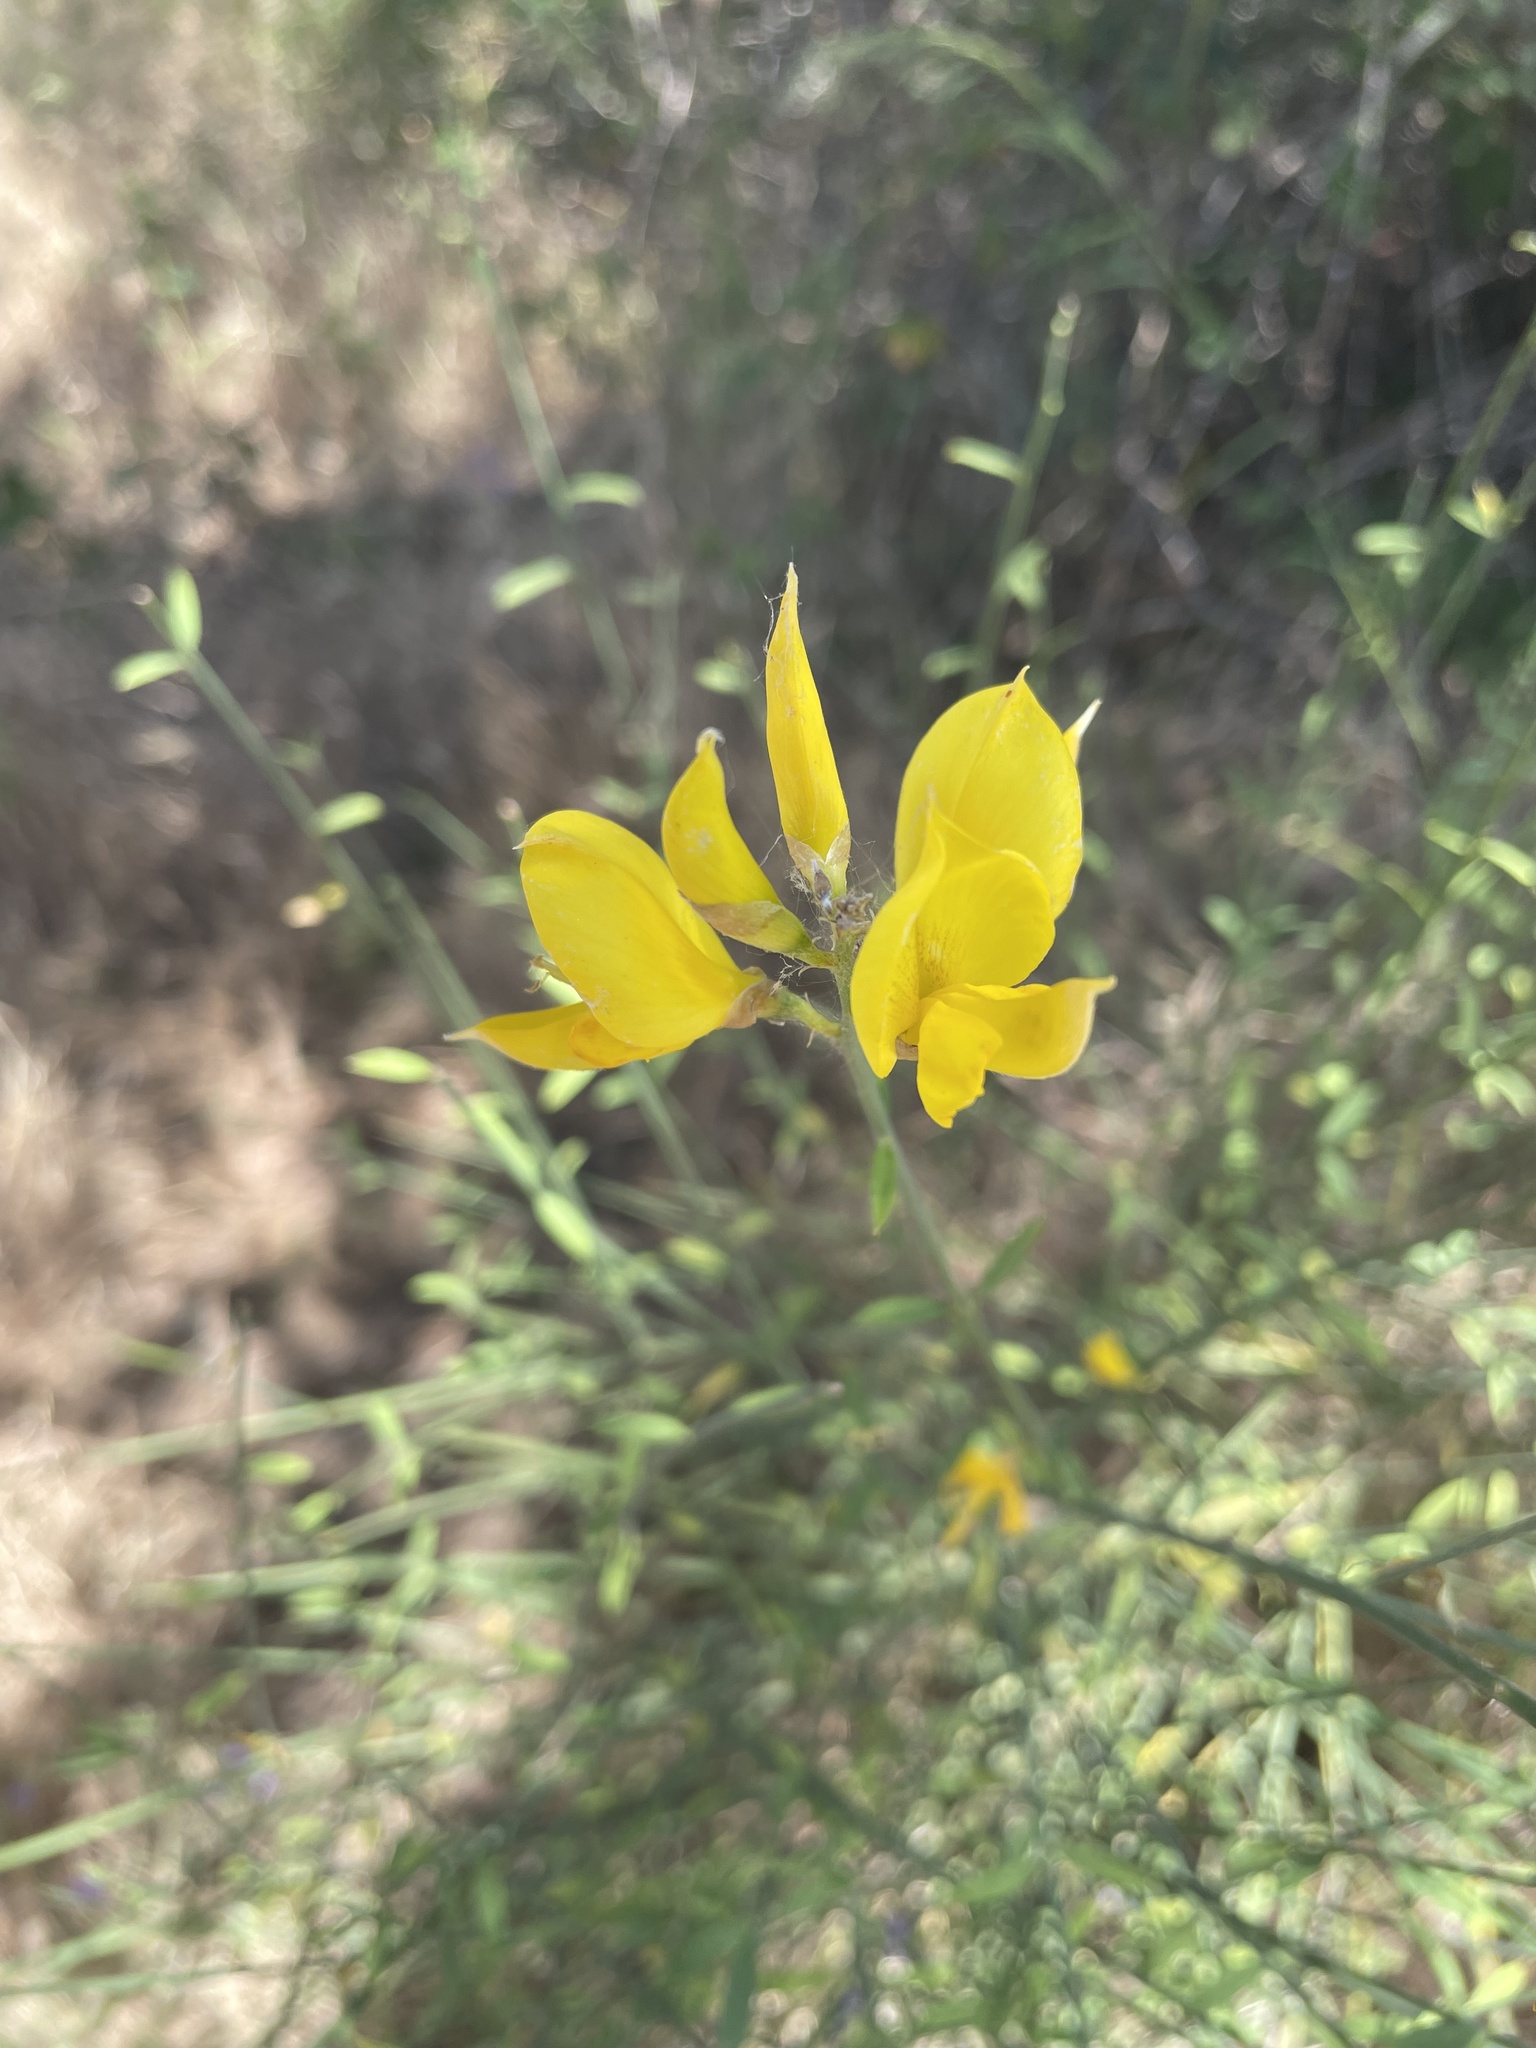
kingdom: Plantae
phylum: Tracheophyta
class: Magnoliopsida
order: Fabales
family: Fabaceae
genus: Spartium
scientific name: Spartium junceum
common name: Spanish broom
